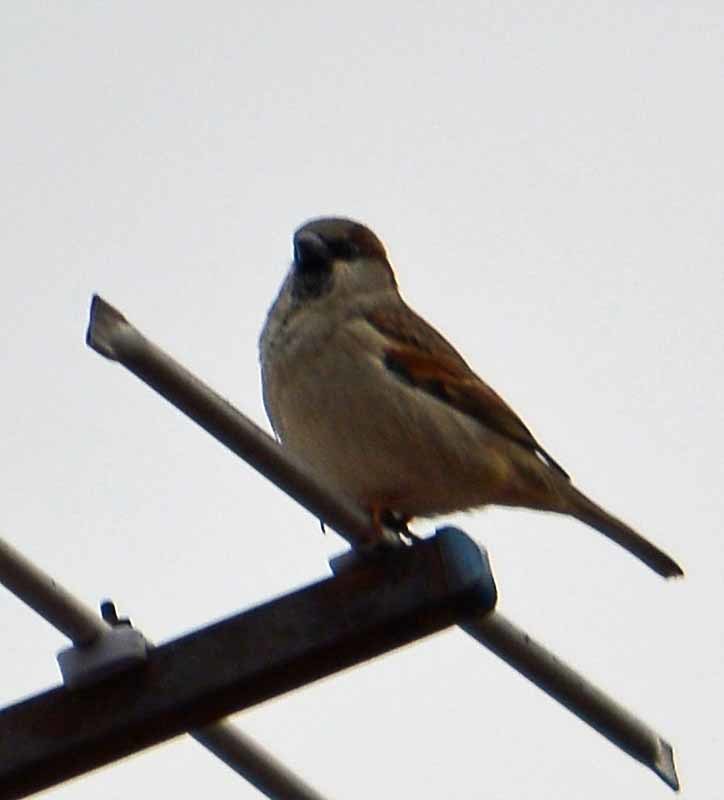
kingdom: Animalia
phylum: Chordata
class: Aves
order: Passeriformes
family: Passeridae
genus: Passer
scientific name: Passer domesticus
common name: House sparrow
